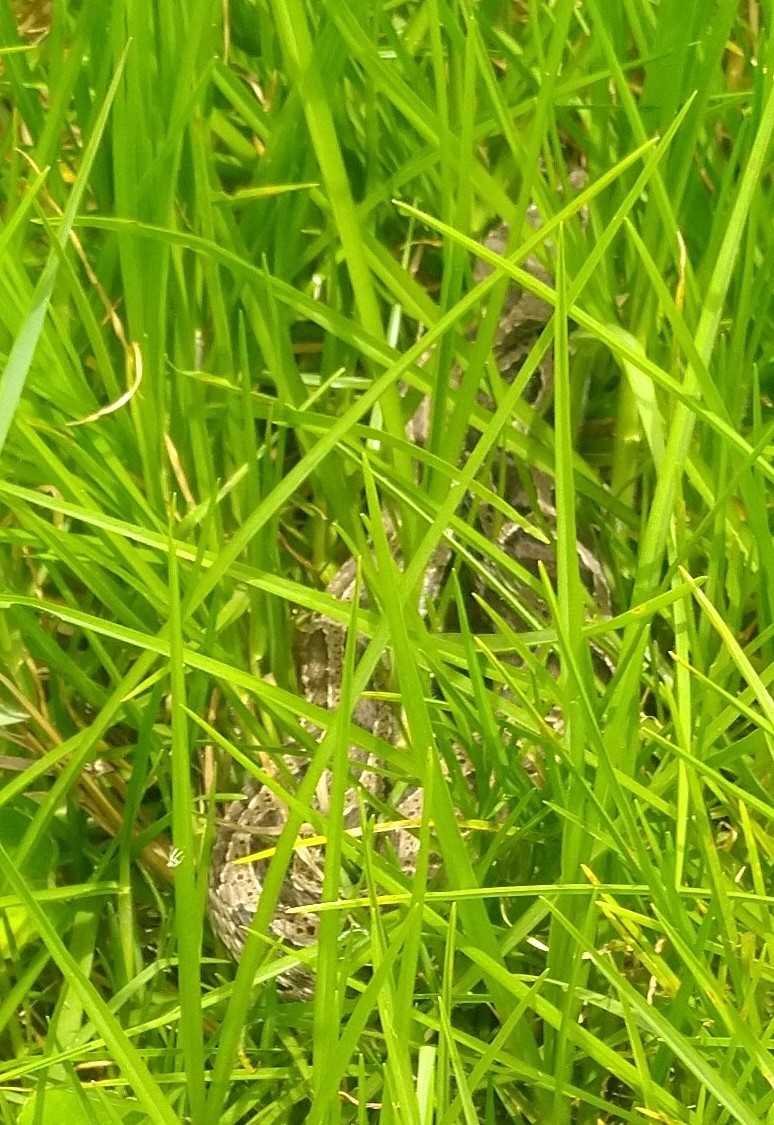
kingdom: Animalia
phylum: Chordata
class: Squamata
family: Viperidae
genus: Daboia
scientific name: Daboia russelii
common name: Western russel’s viper
